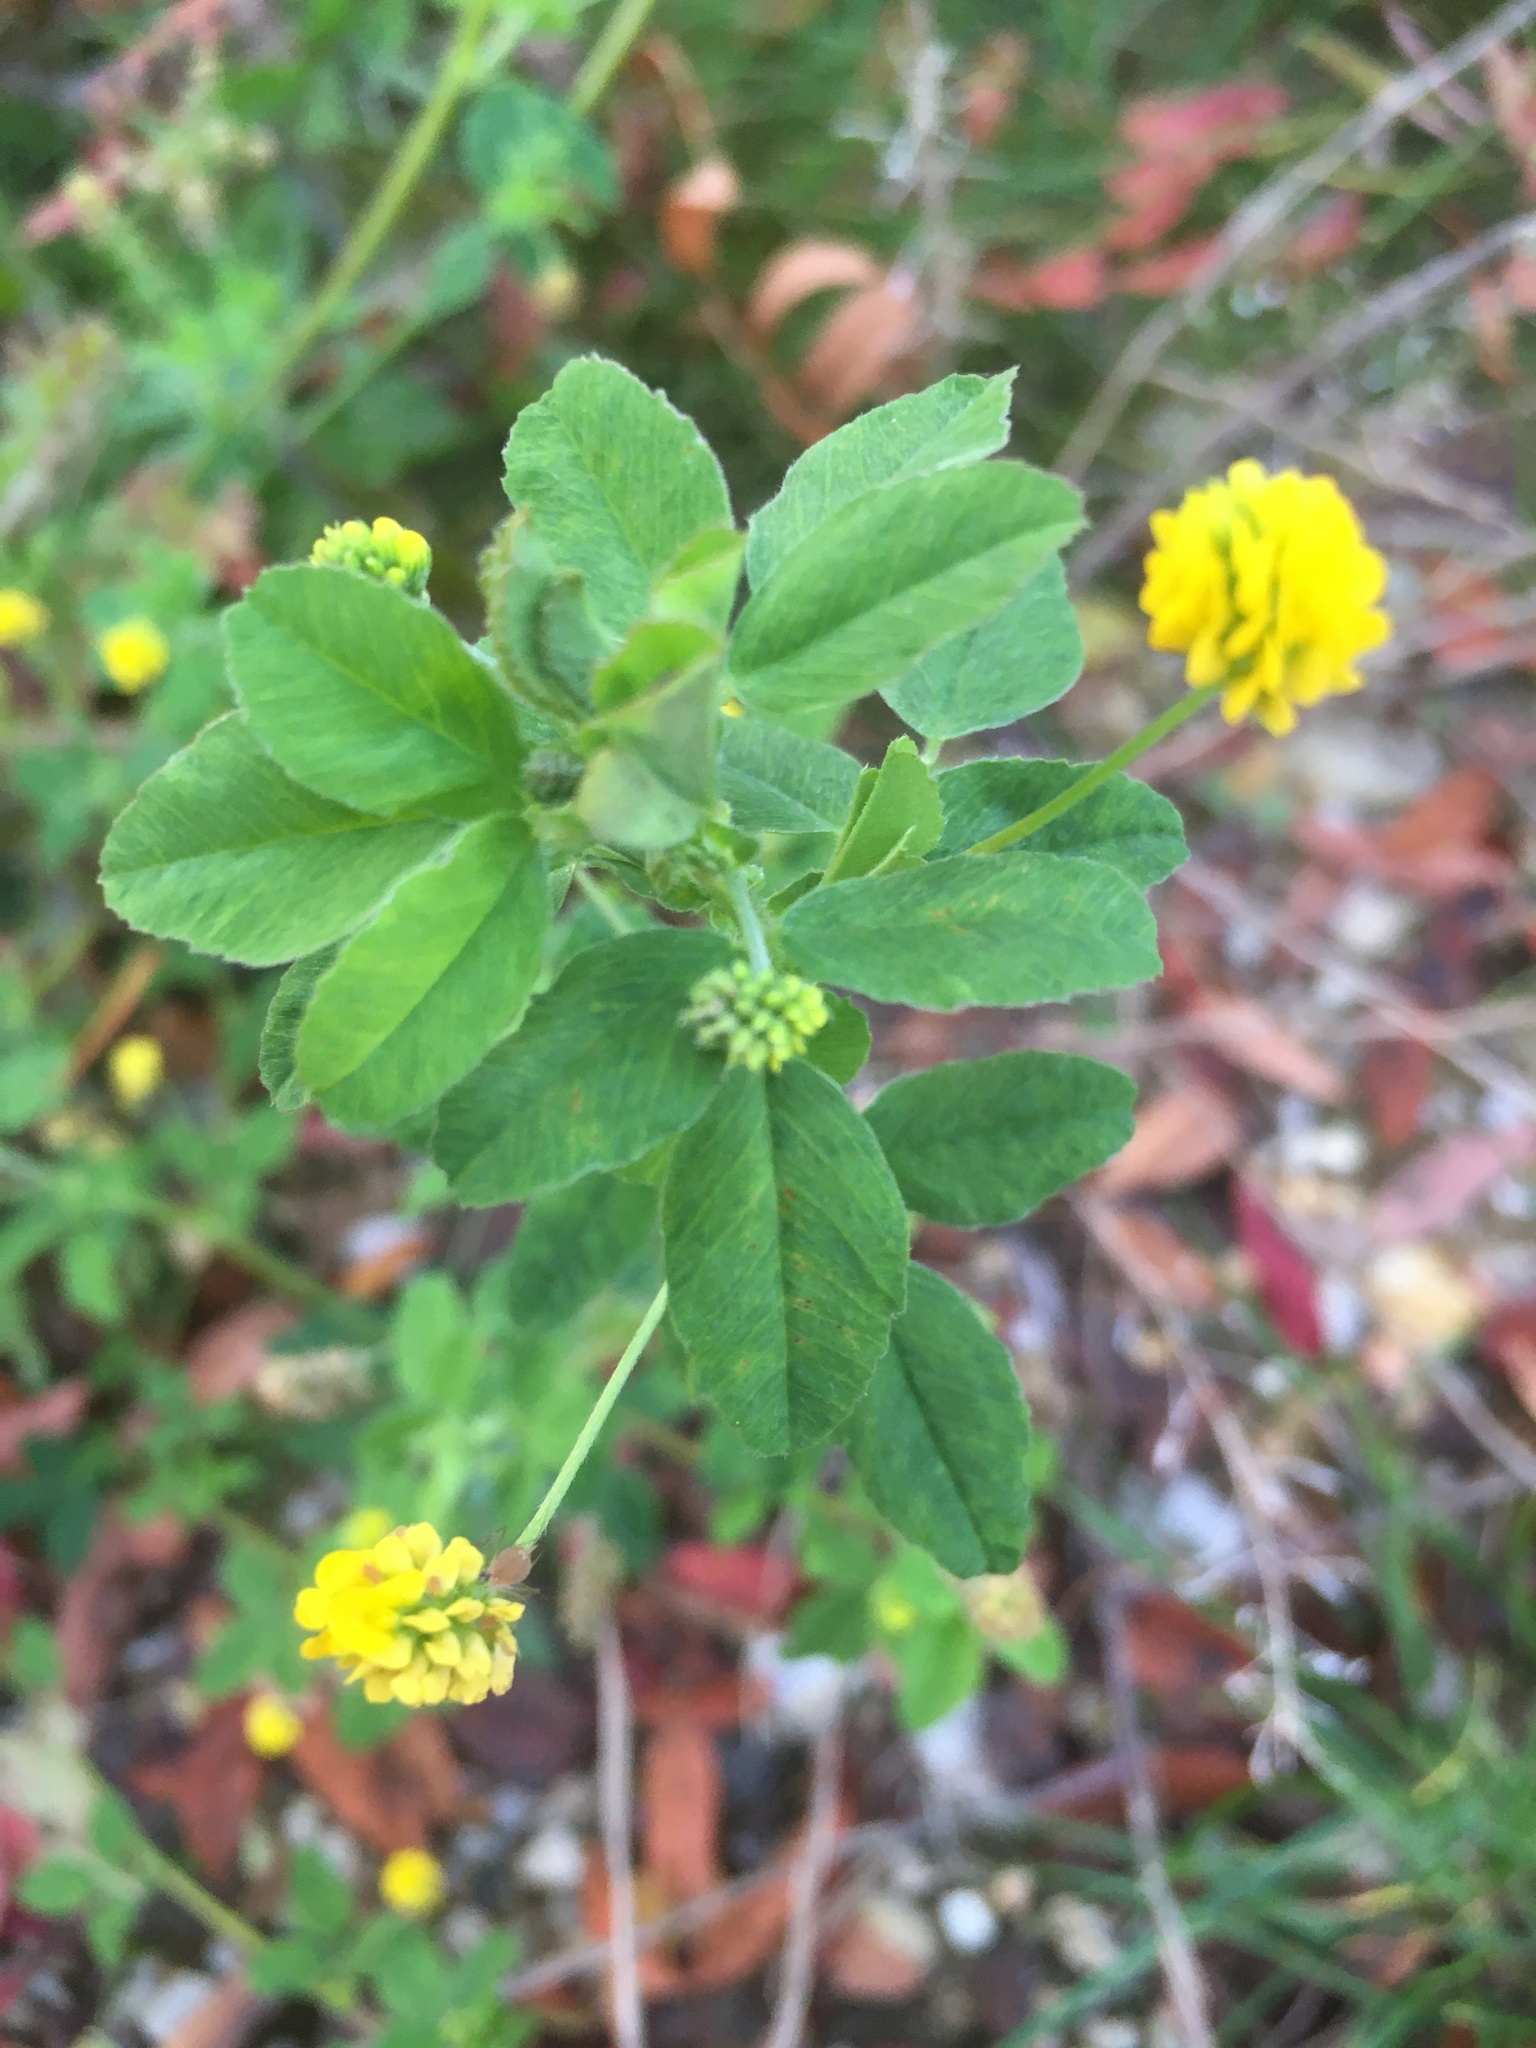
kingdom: Plantae
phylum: Tracheophyta
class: Magnoliopsida
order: Fabales
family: Fabaceae
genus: Medicago
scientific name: Medicago lupulina
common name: Black medick
